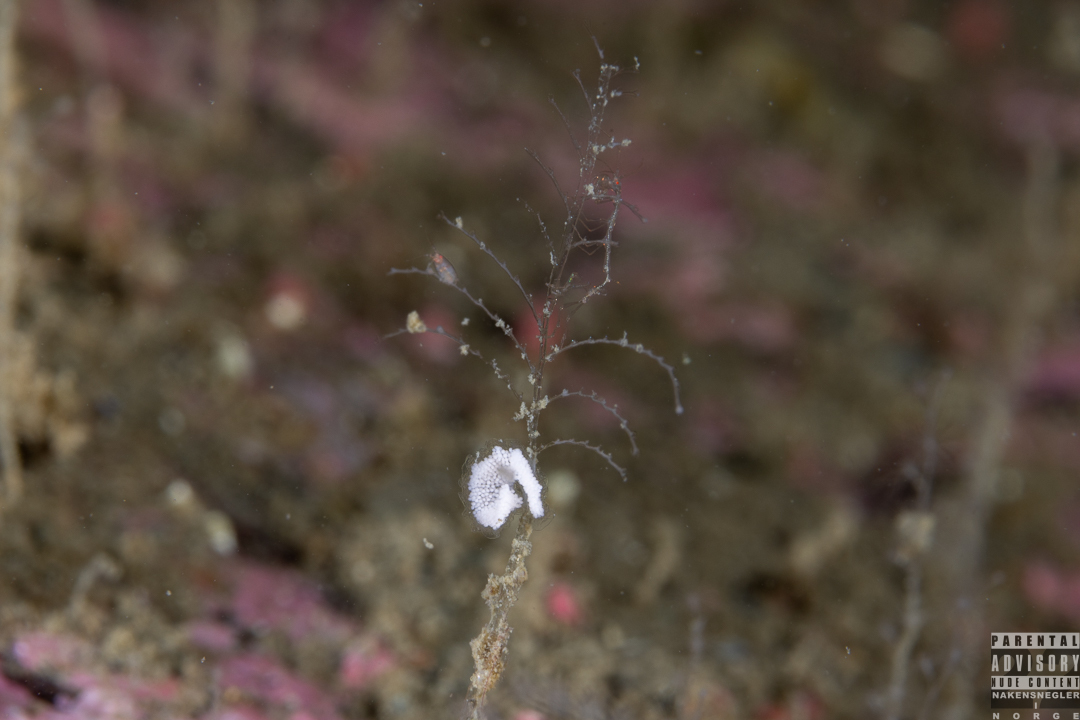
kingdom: Animalia
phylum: Mollusca
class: Gastropoda
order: Nudibranchia
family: Eubranchidae
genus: Eubranchus
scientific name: Eubranchus vittatus
